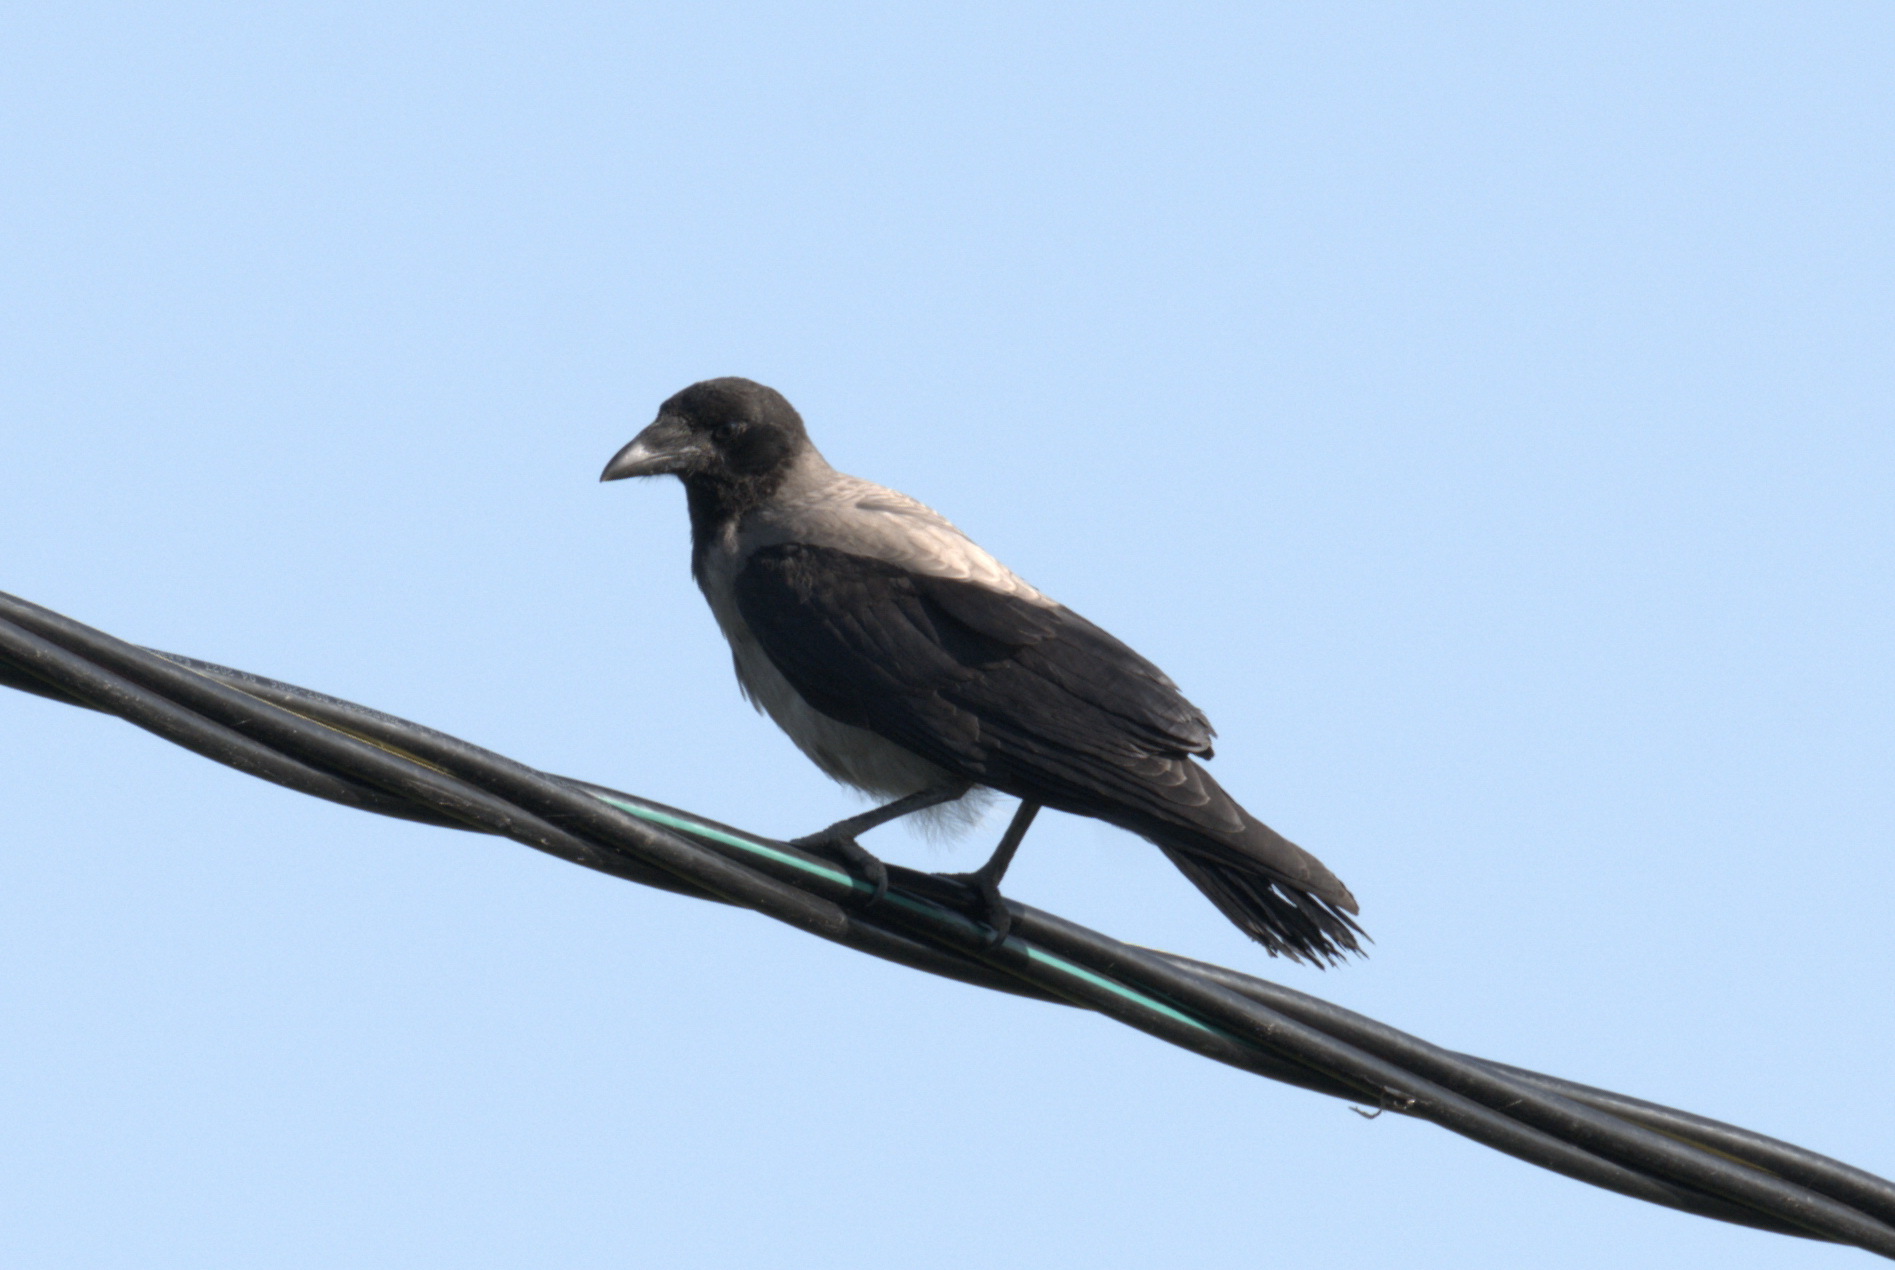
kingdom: Animalia
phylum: Chordata
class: Aves
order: Passeriformes
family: Corvidae
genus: Corvus
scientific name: Corvus cornix
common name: Hooded crow
